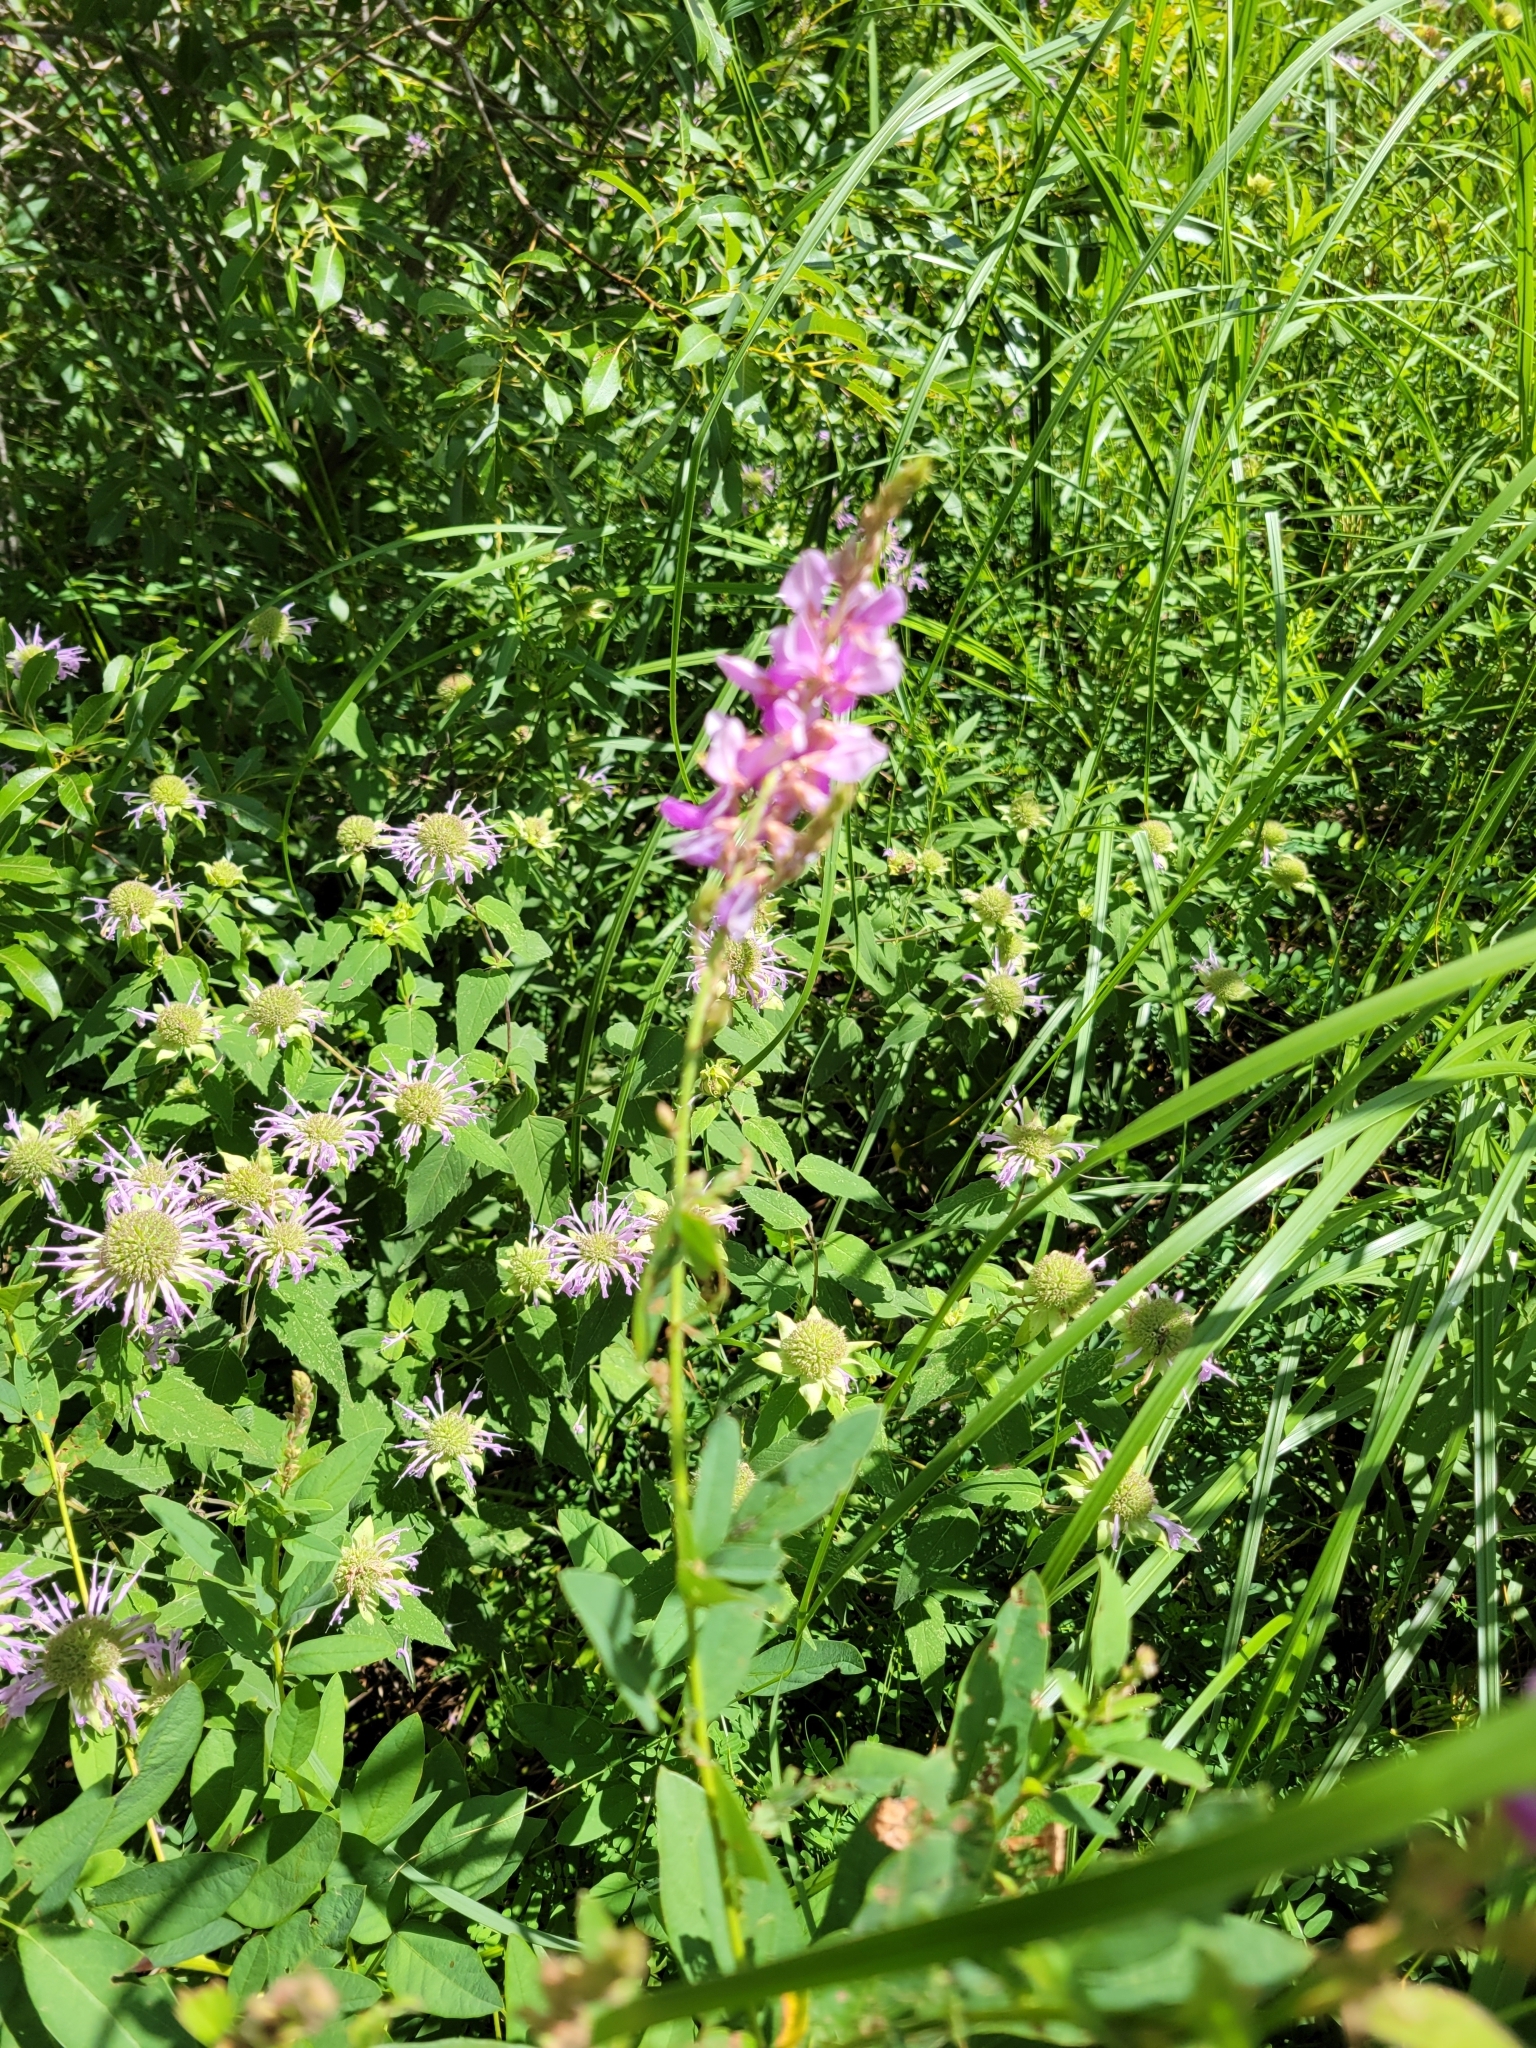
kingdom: Plantae
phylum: Tracheophyta
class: Magnoliopsida
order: Fabales
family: Fabaceae
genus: Desmodium
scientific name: Desmodium canadense
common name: Canada tick-trefoil
